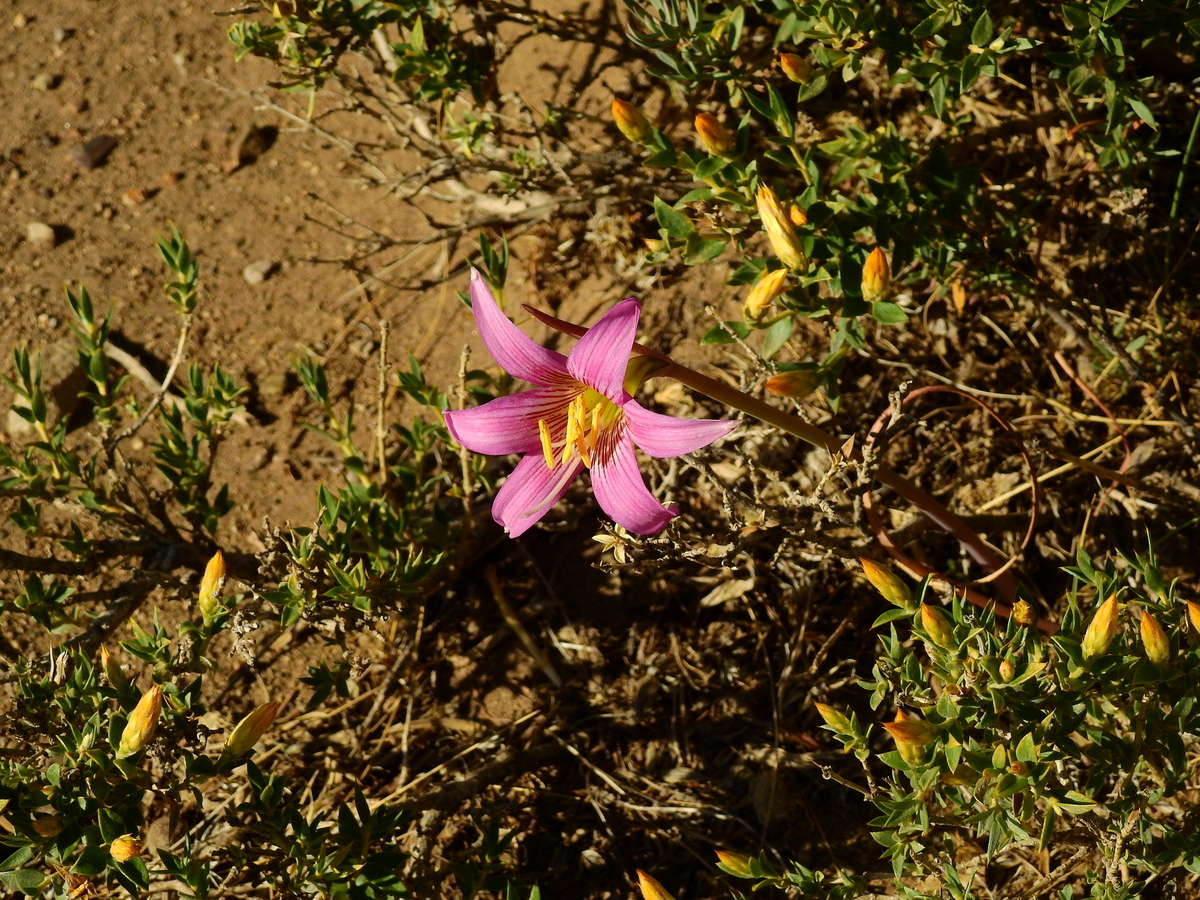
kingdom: Plantae
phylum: Tracheophyta
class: Liliopsida
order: Asparagales
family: Amaryllidaceae
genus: Rhodolirium
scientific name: Rhodolirium montanum
